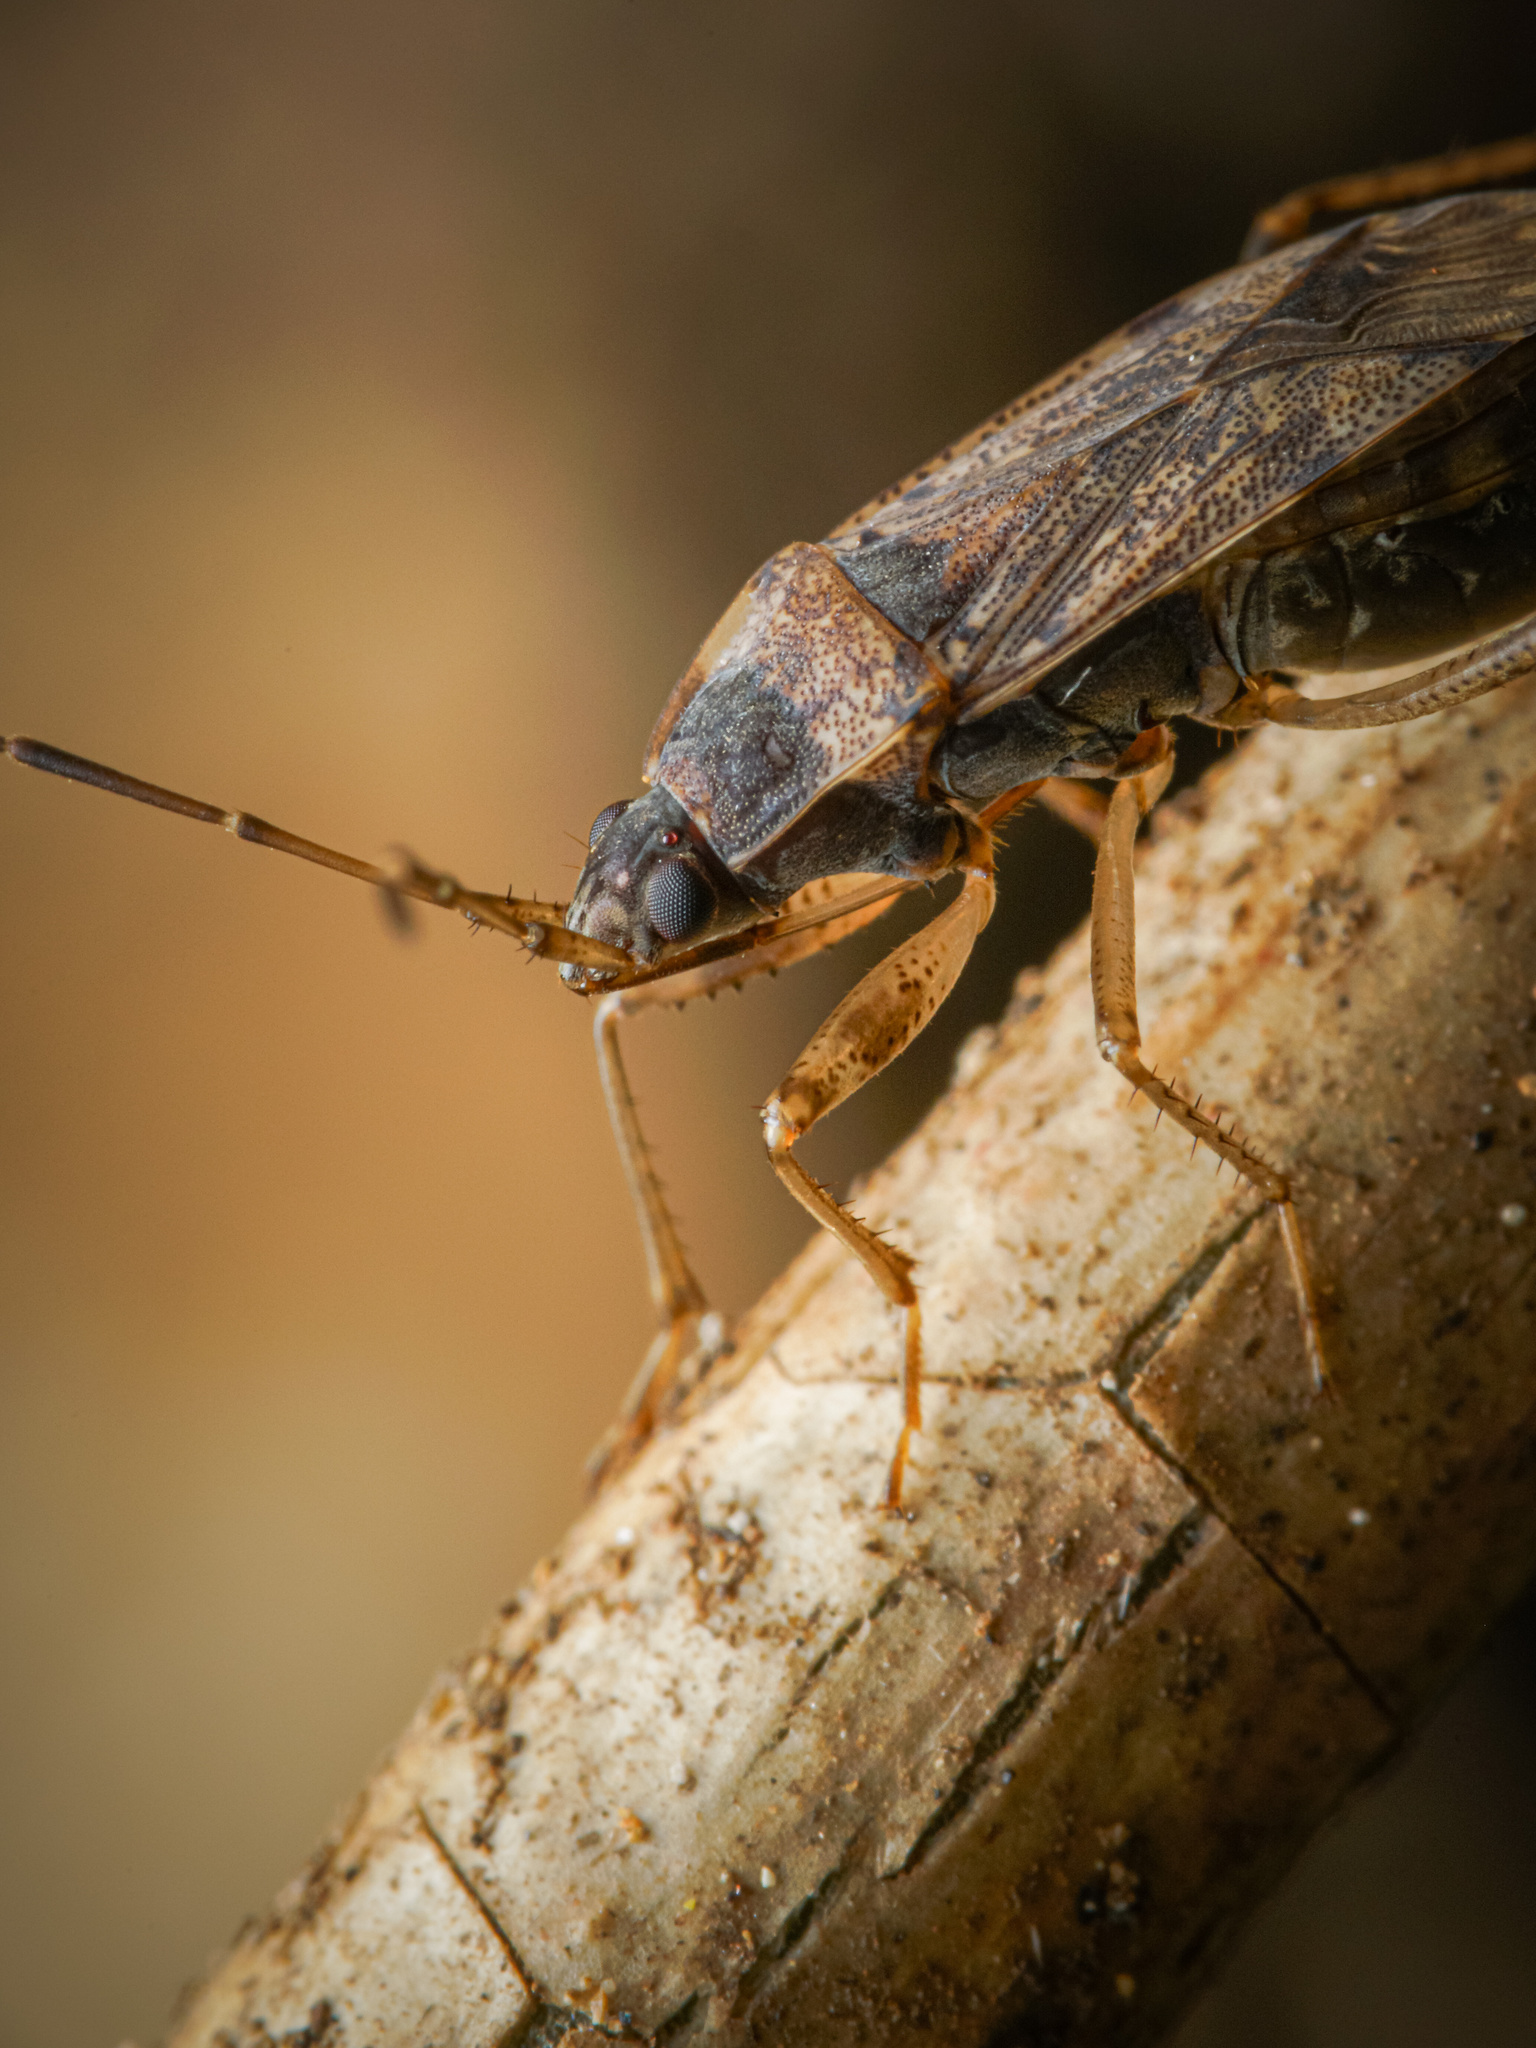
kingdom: Animalia
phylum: Arthropoda
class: Insecta
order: Hemiptera
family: Rhyparochromidae
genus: Elasmolomus
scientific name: Elasmolomus pallens
